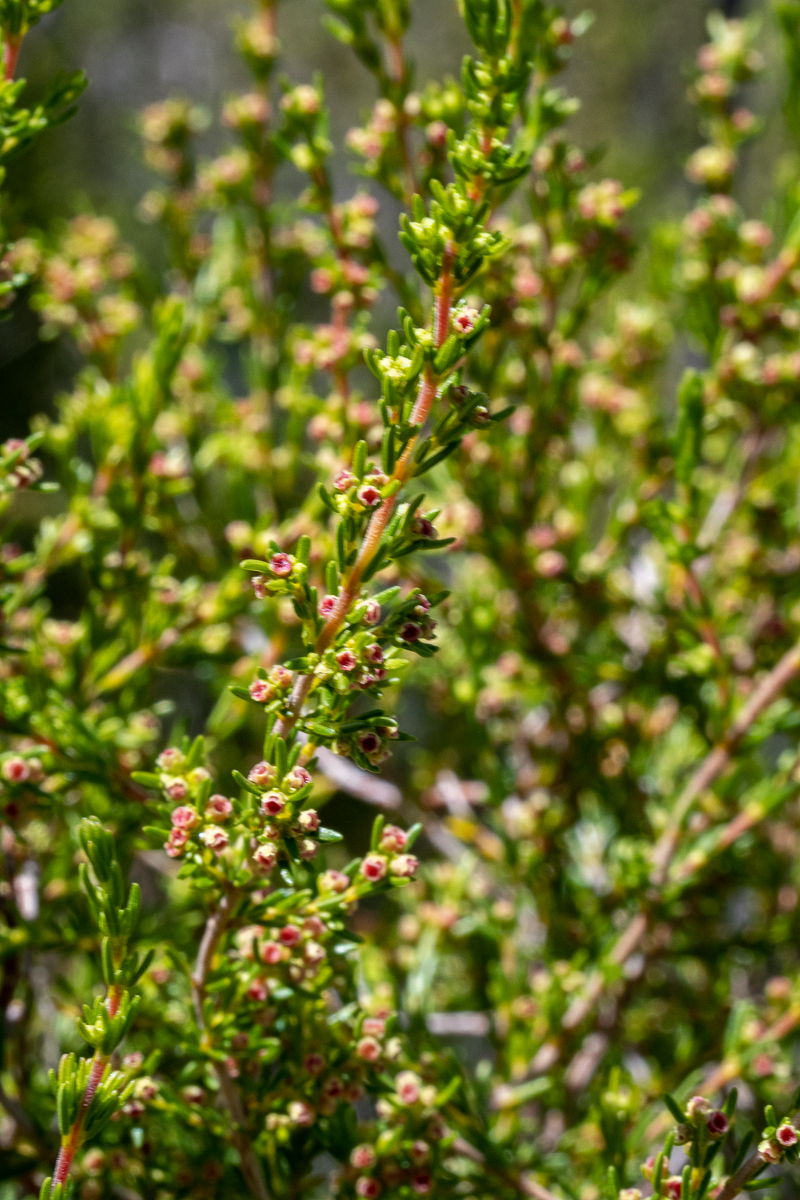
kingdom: Plantae
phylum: Tracheophyta
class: Magnoliopsida
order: Ericales
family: Ericaceae
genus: Erica
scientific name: Erica axillaris
